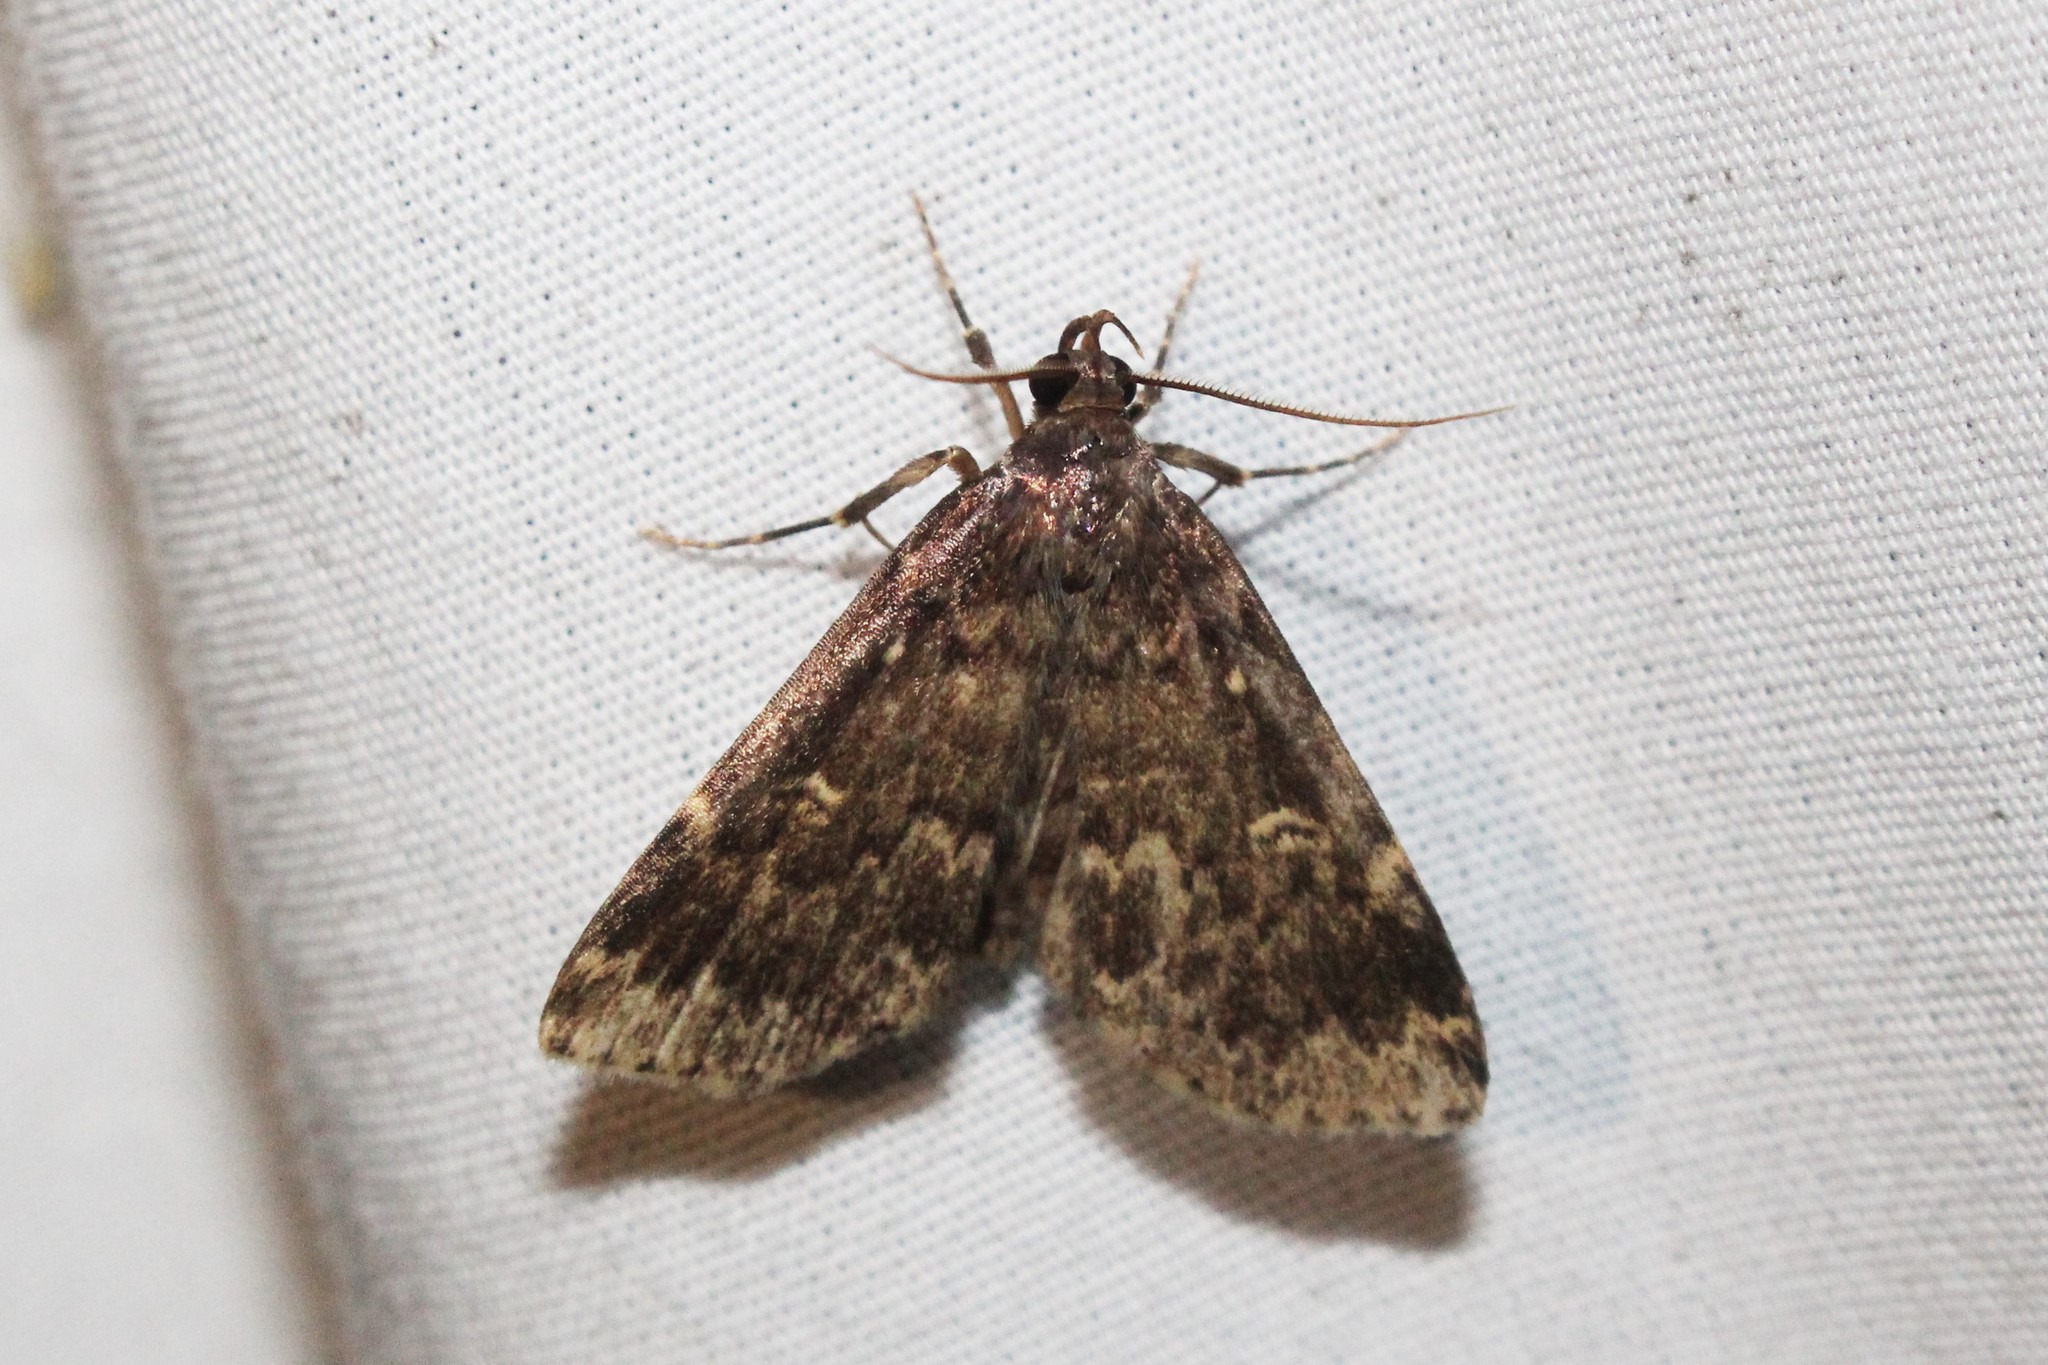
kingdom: Animalia
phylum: Arthropoda
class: Insecta
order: Lepidoptera
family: Erebidae
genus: Idia
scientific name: Idia lubricalis
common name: Twin-striped tabby
